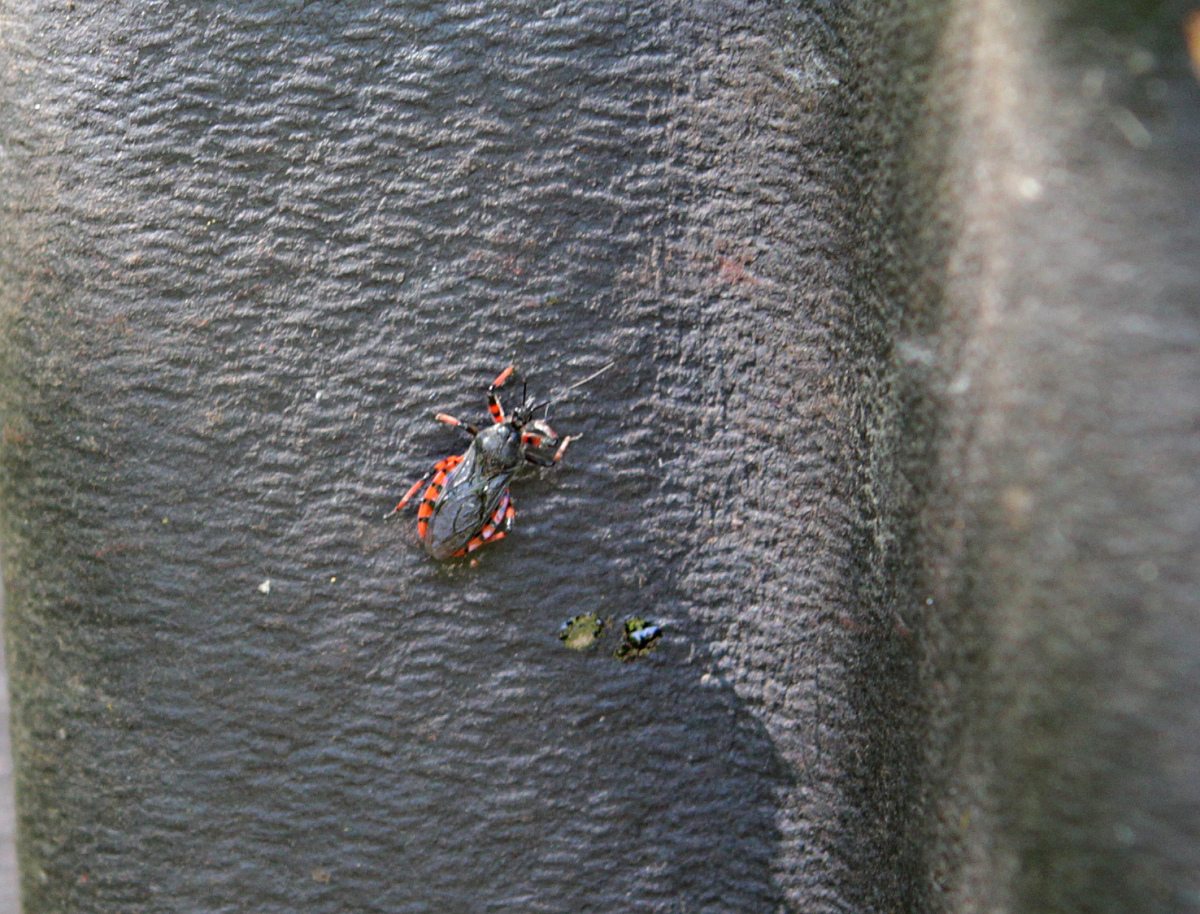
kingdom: Animalia
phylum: Arthropoda
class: Insecta
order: Hemiptera
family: Reduviidae
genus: Rhynocoris
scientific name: Rhynocoris annulatus
